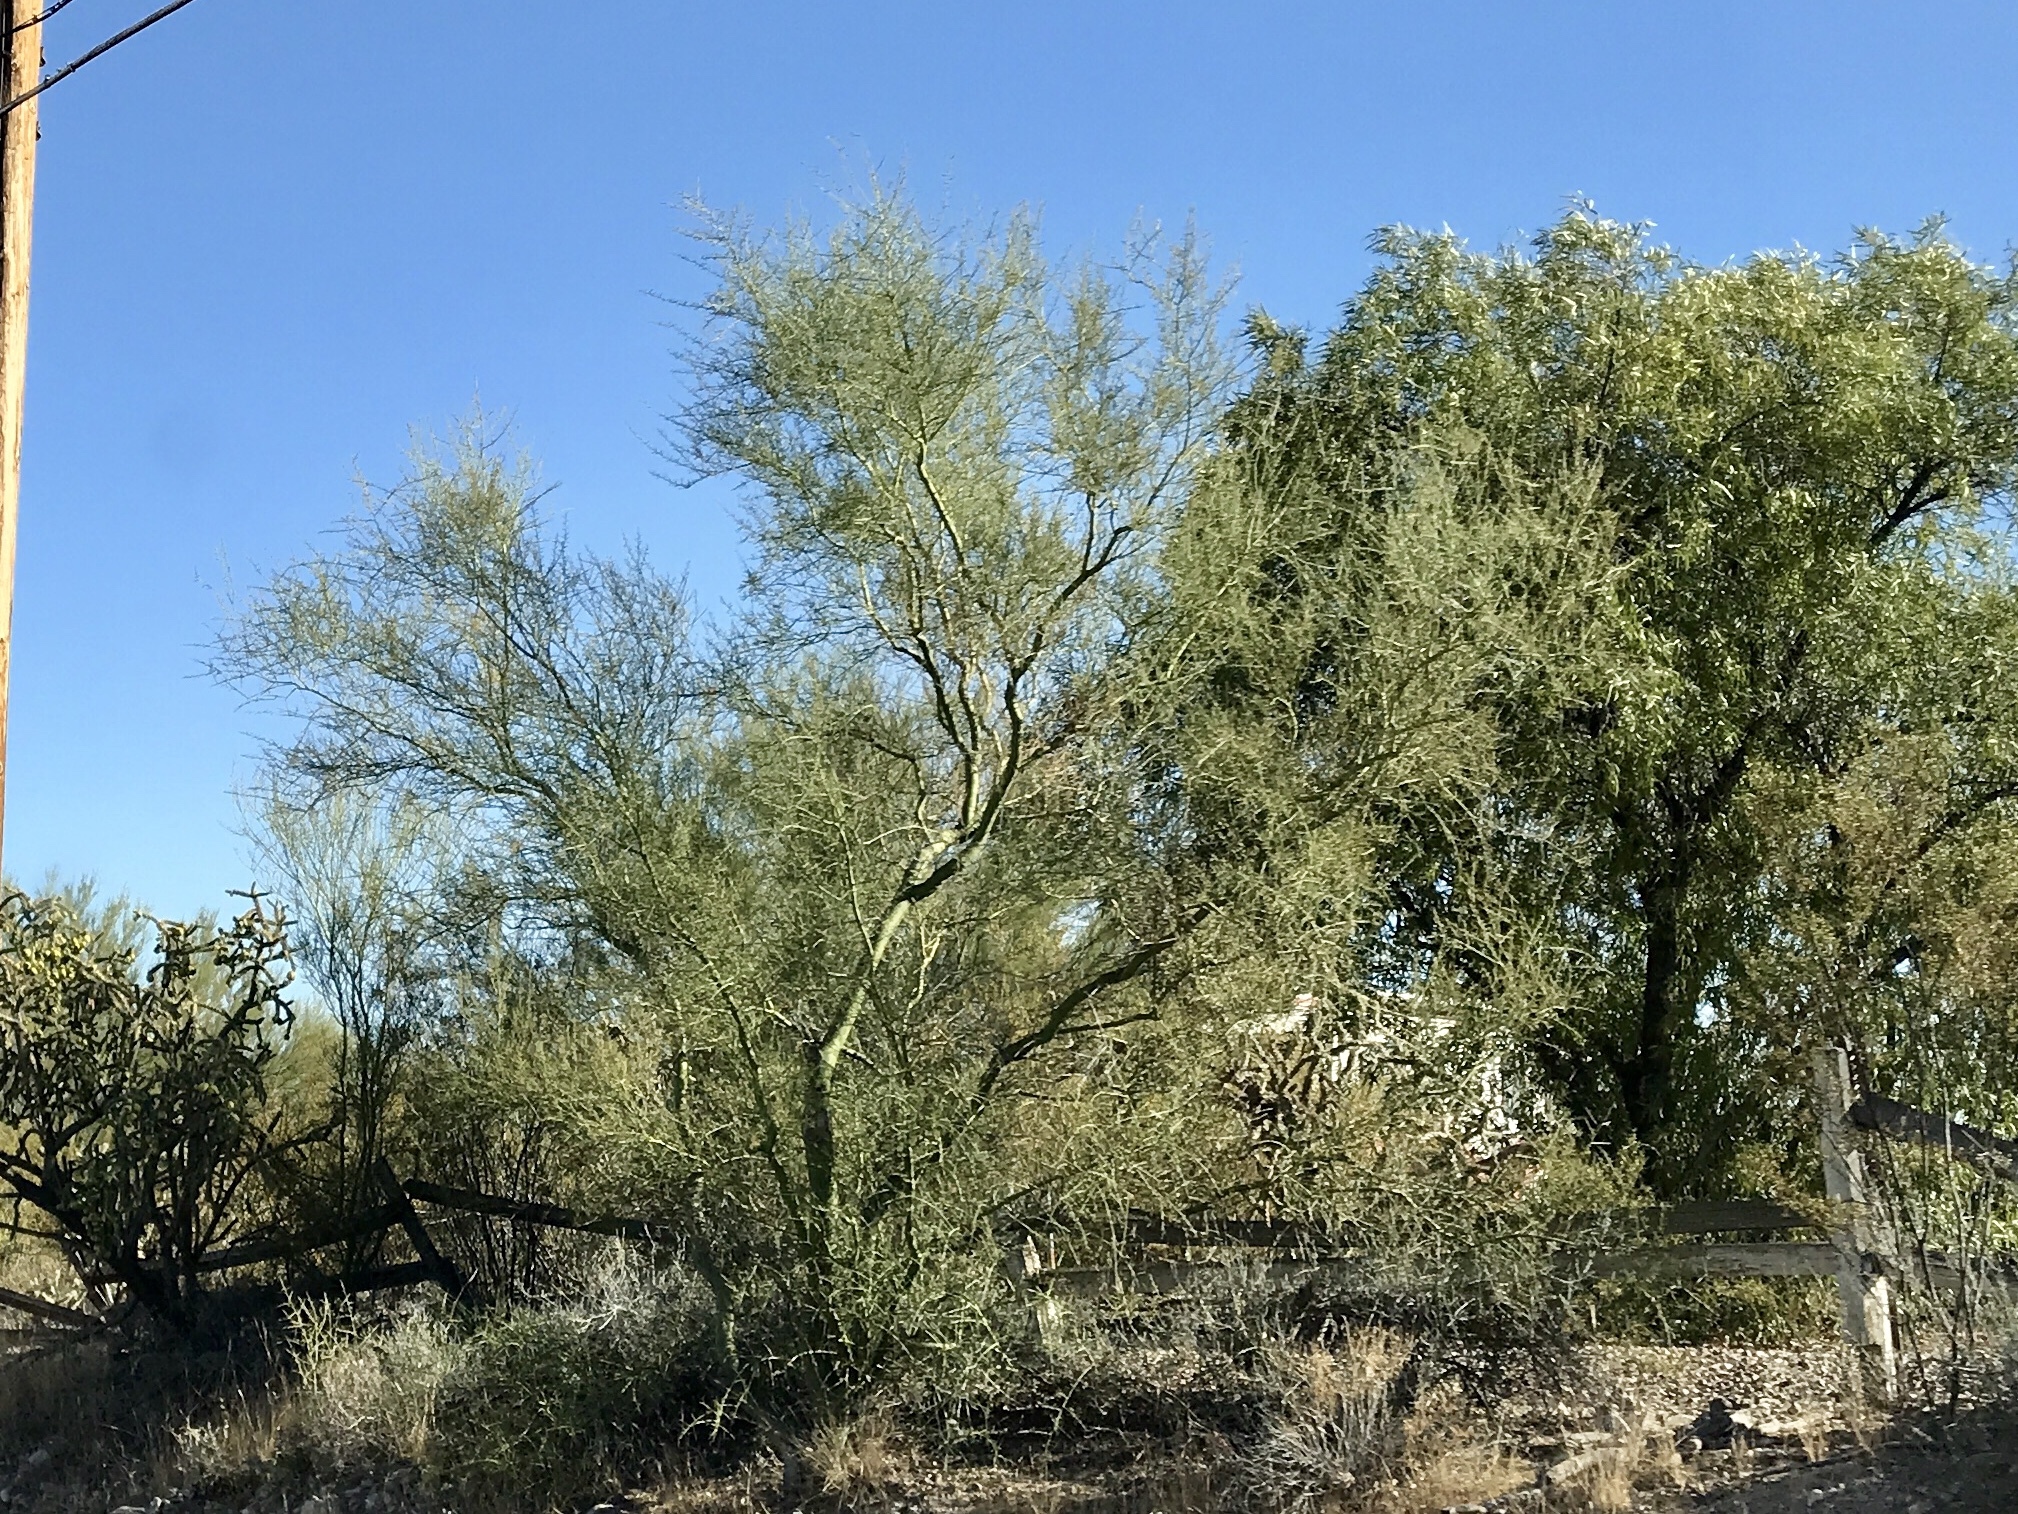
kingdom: Plantae
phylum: Tracheophyta
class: Magnoliopsida
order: Fabales
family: Fabaceae
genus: Parkinsonia
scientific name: Parkinsonia microphylla
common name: Yellow paloverde
